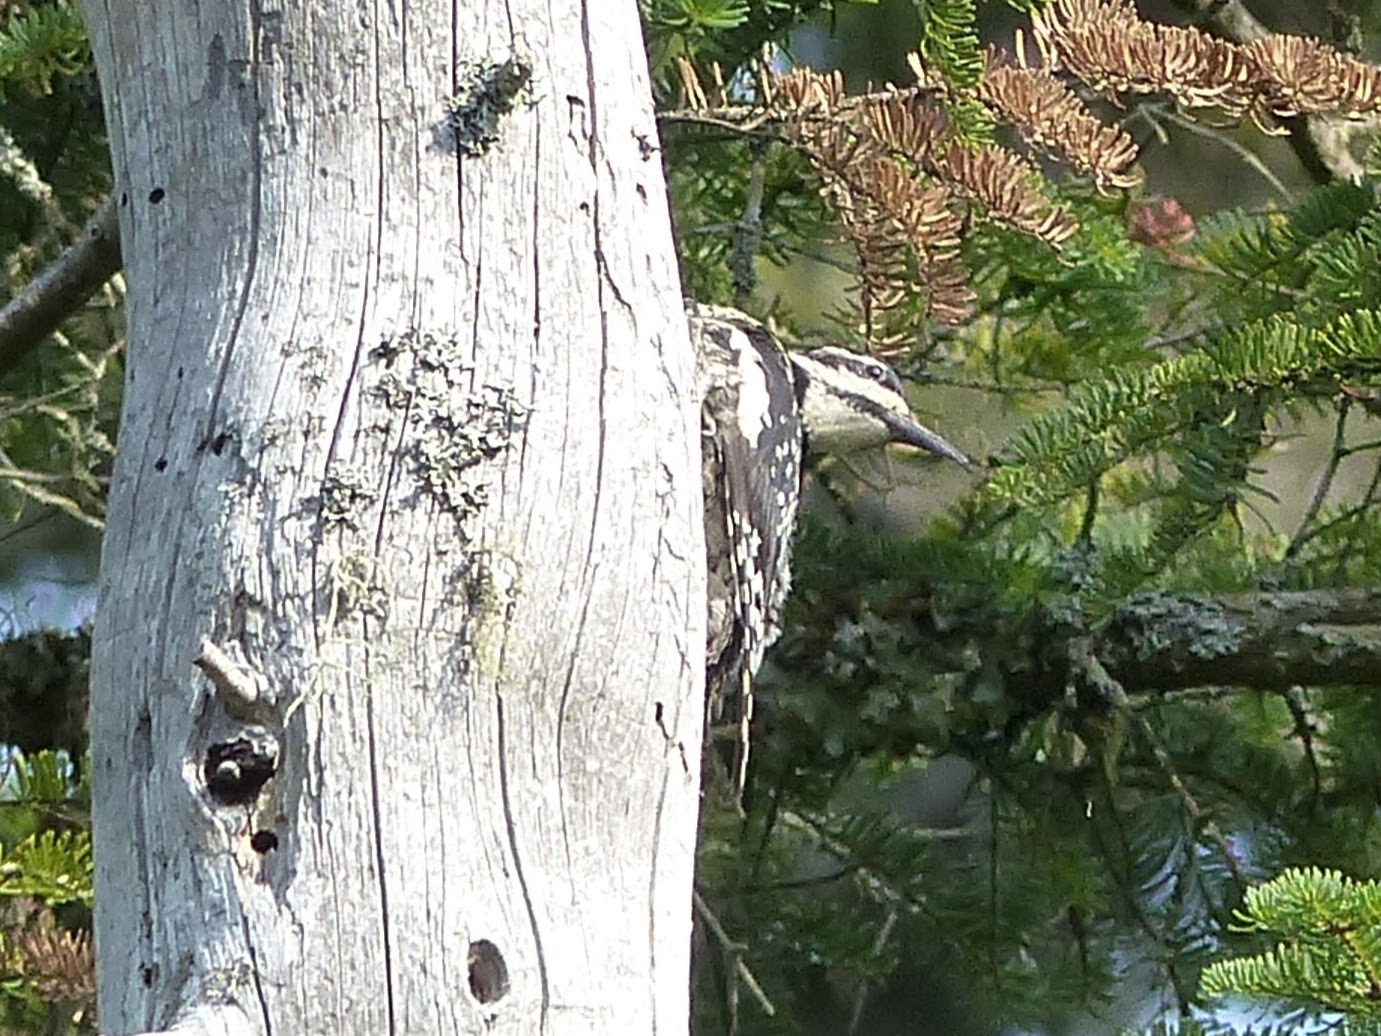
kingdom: Animalia
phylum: Chordata
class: Aves
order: Piciformes
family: Picidae
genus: Sphyrapicus
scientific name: Sphyrapicus varius
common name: Yellow-bellied sapsucker
